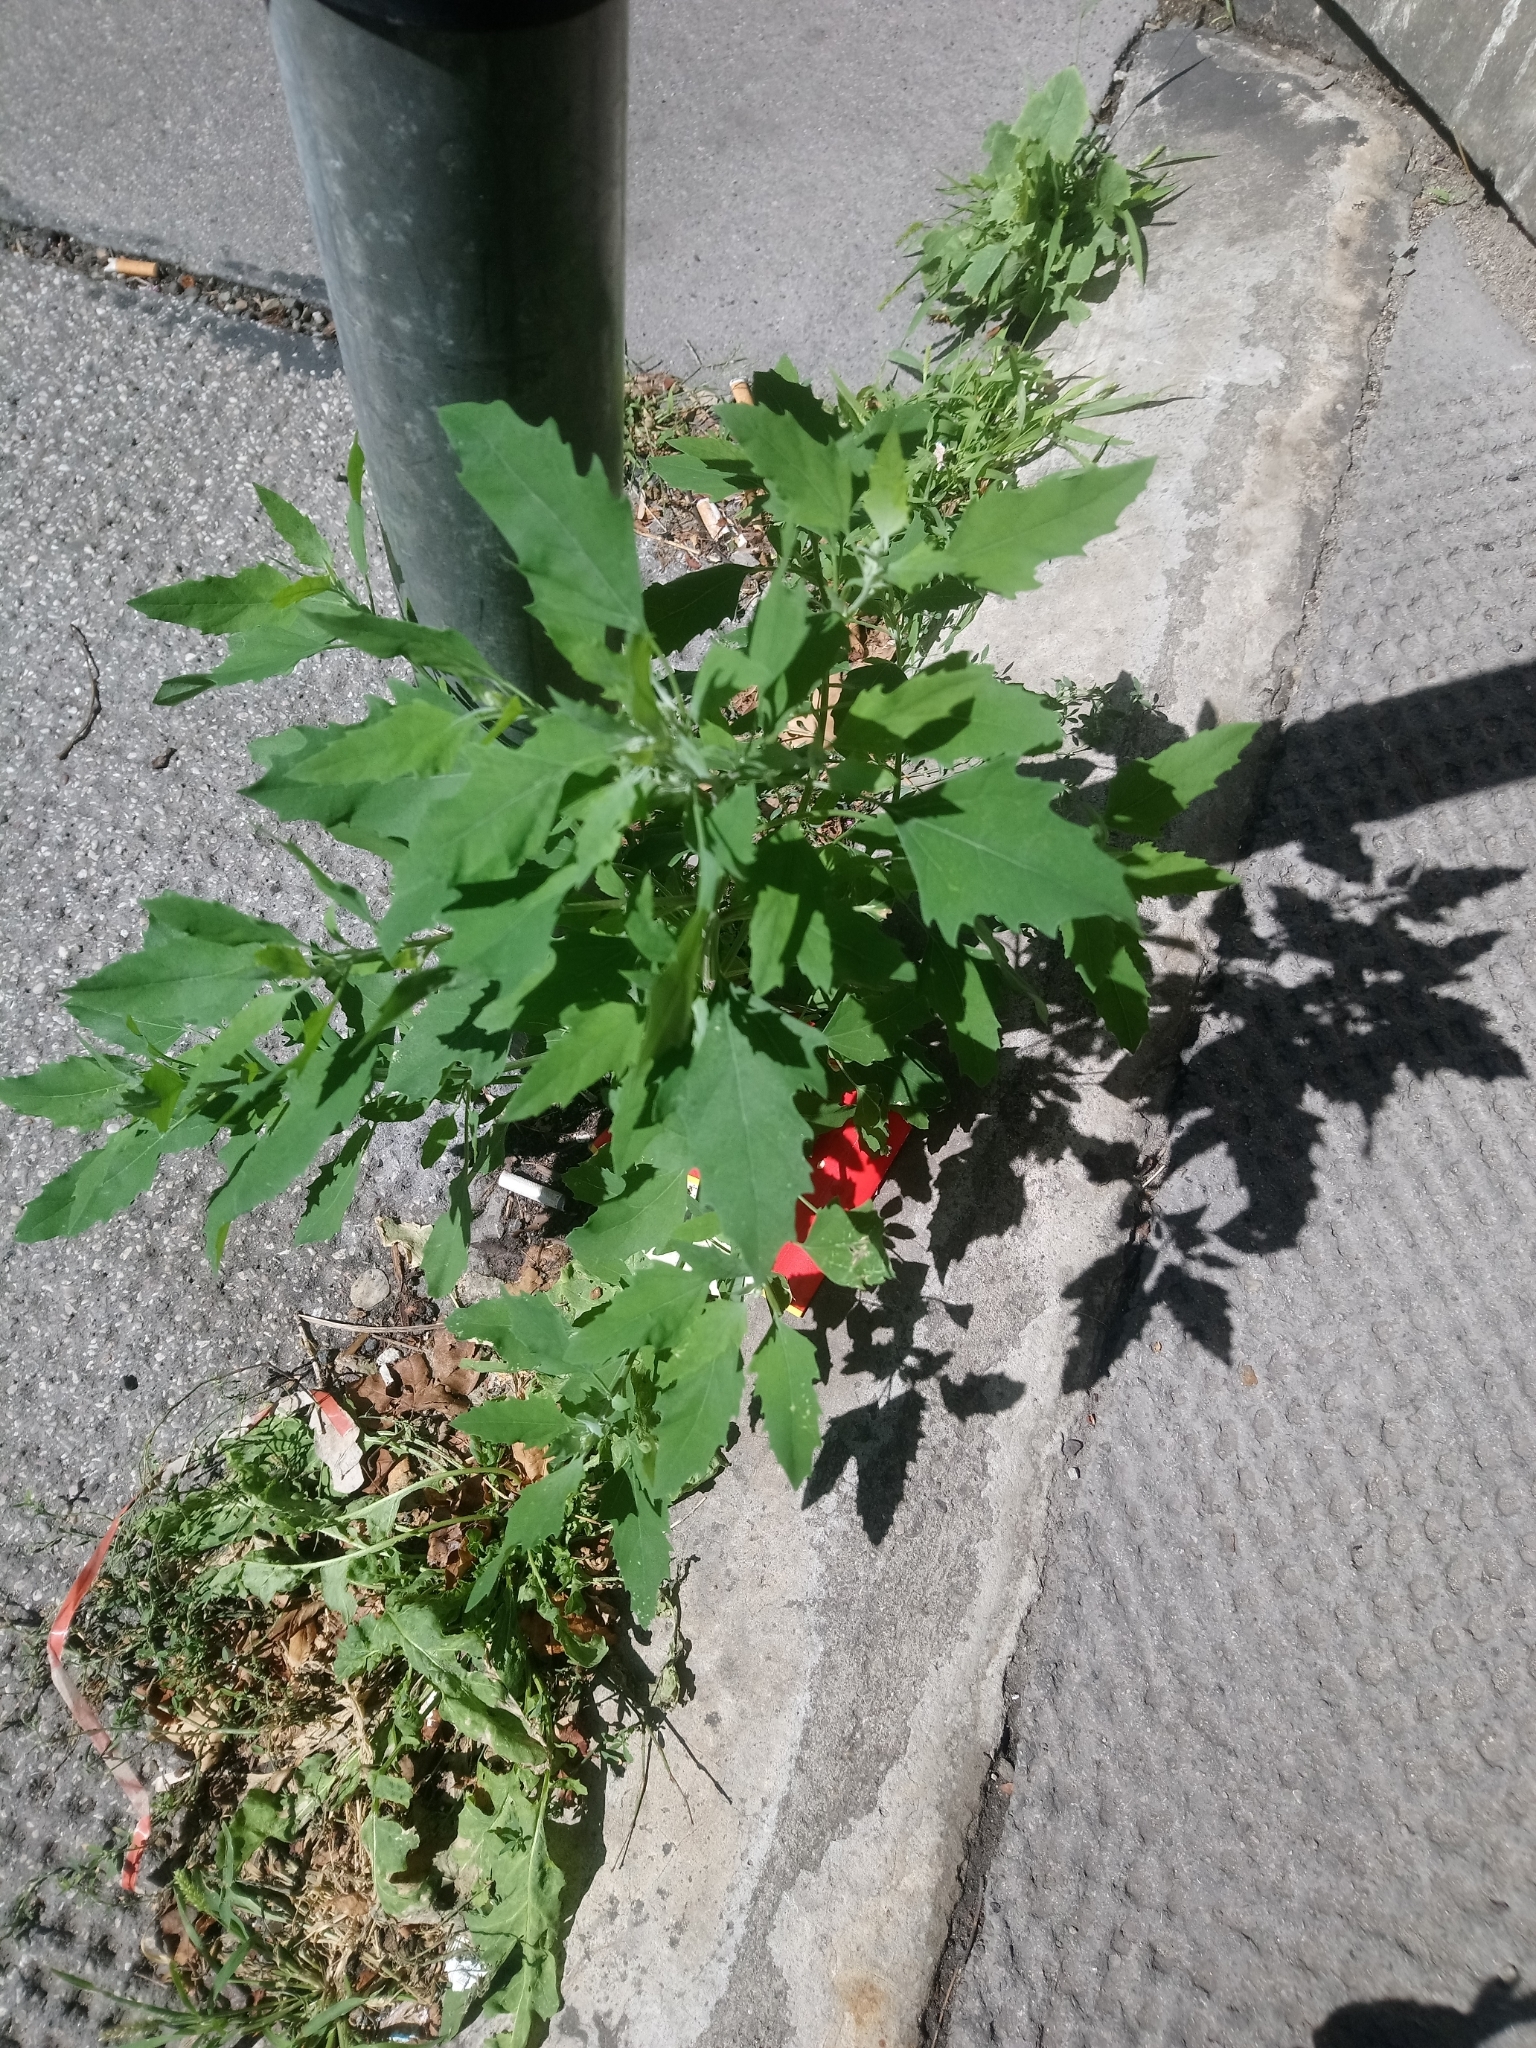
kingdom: Plantae
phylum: Tracheophyta
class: Magnoliopsida
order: Caryophyllales
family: Amaranthaceae
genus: Chenopodium
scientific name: Chenopodium album
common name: Fat-hen
